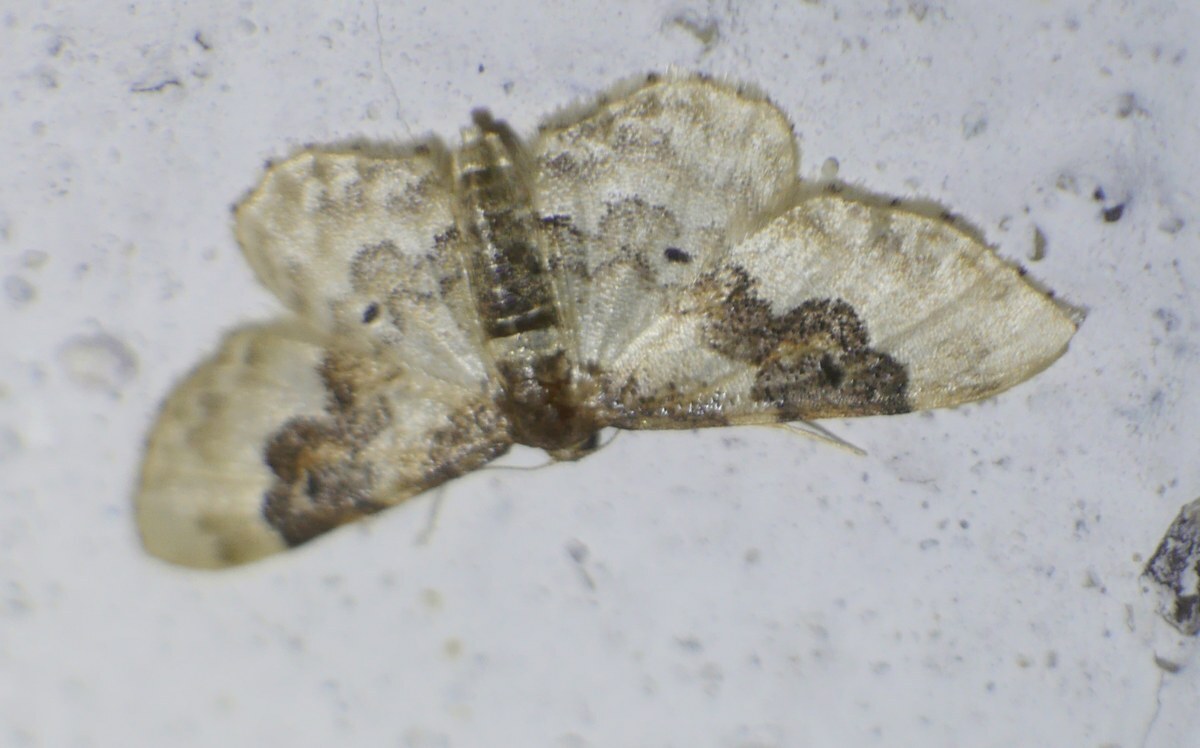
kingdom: Animalia
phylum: Arthropoda
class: Insecta
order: Lepidoptera
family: Geometridae
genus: Idaea
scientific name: Idaea rusticata
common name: Least carpet
